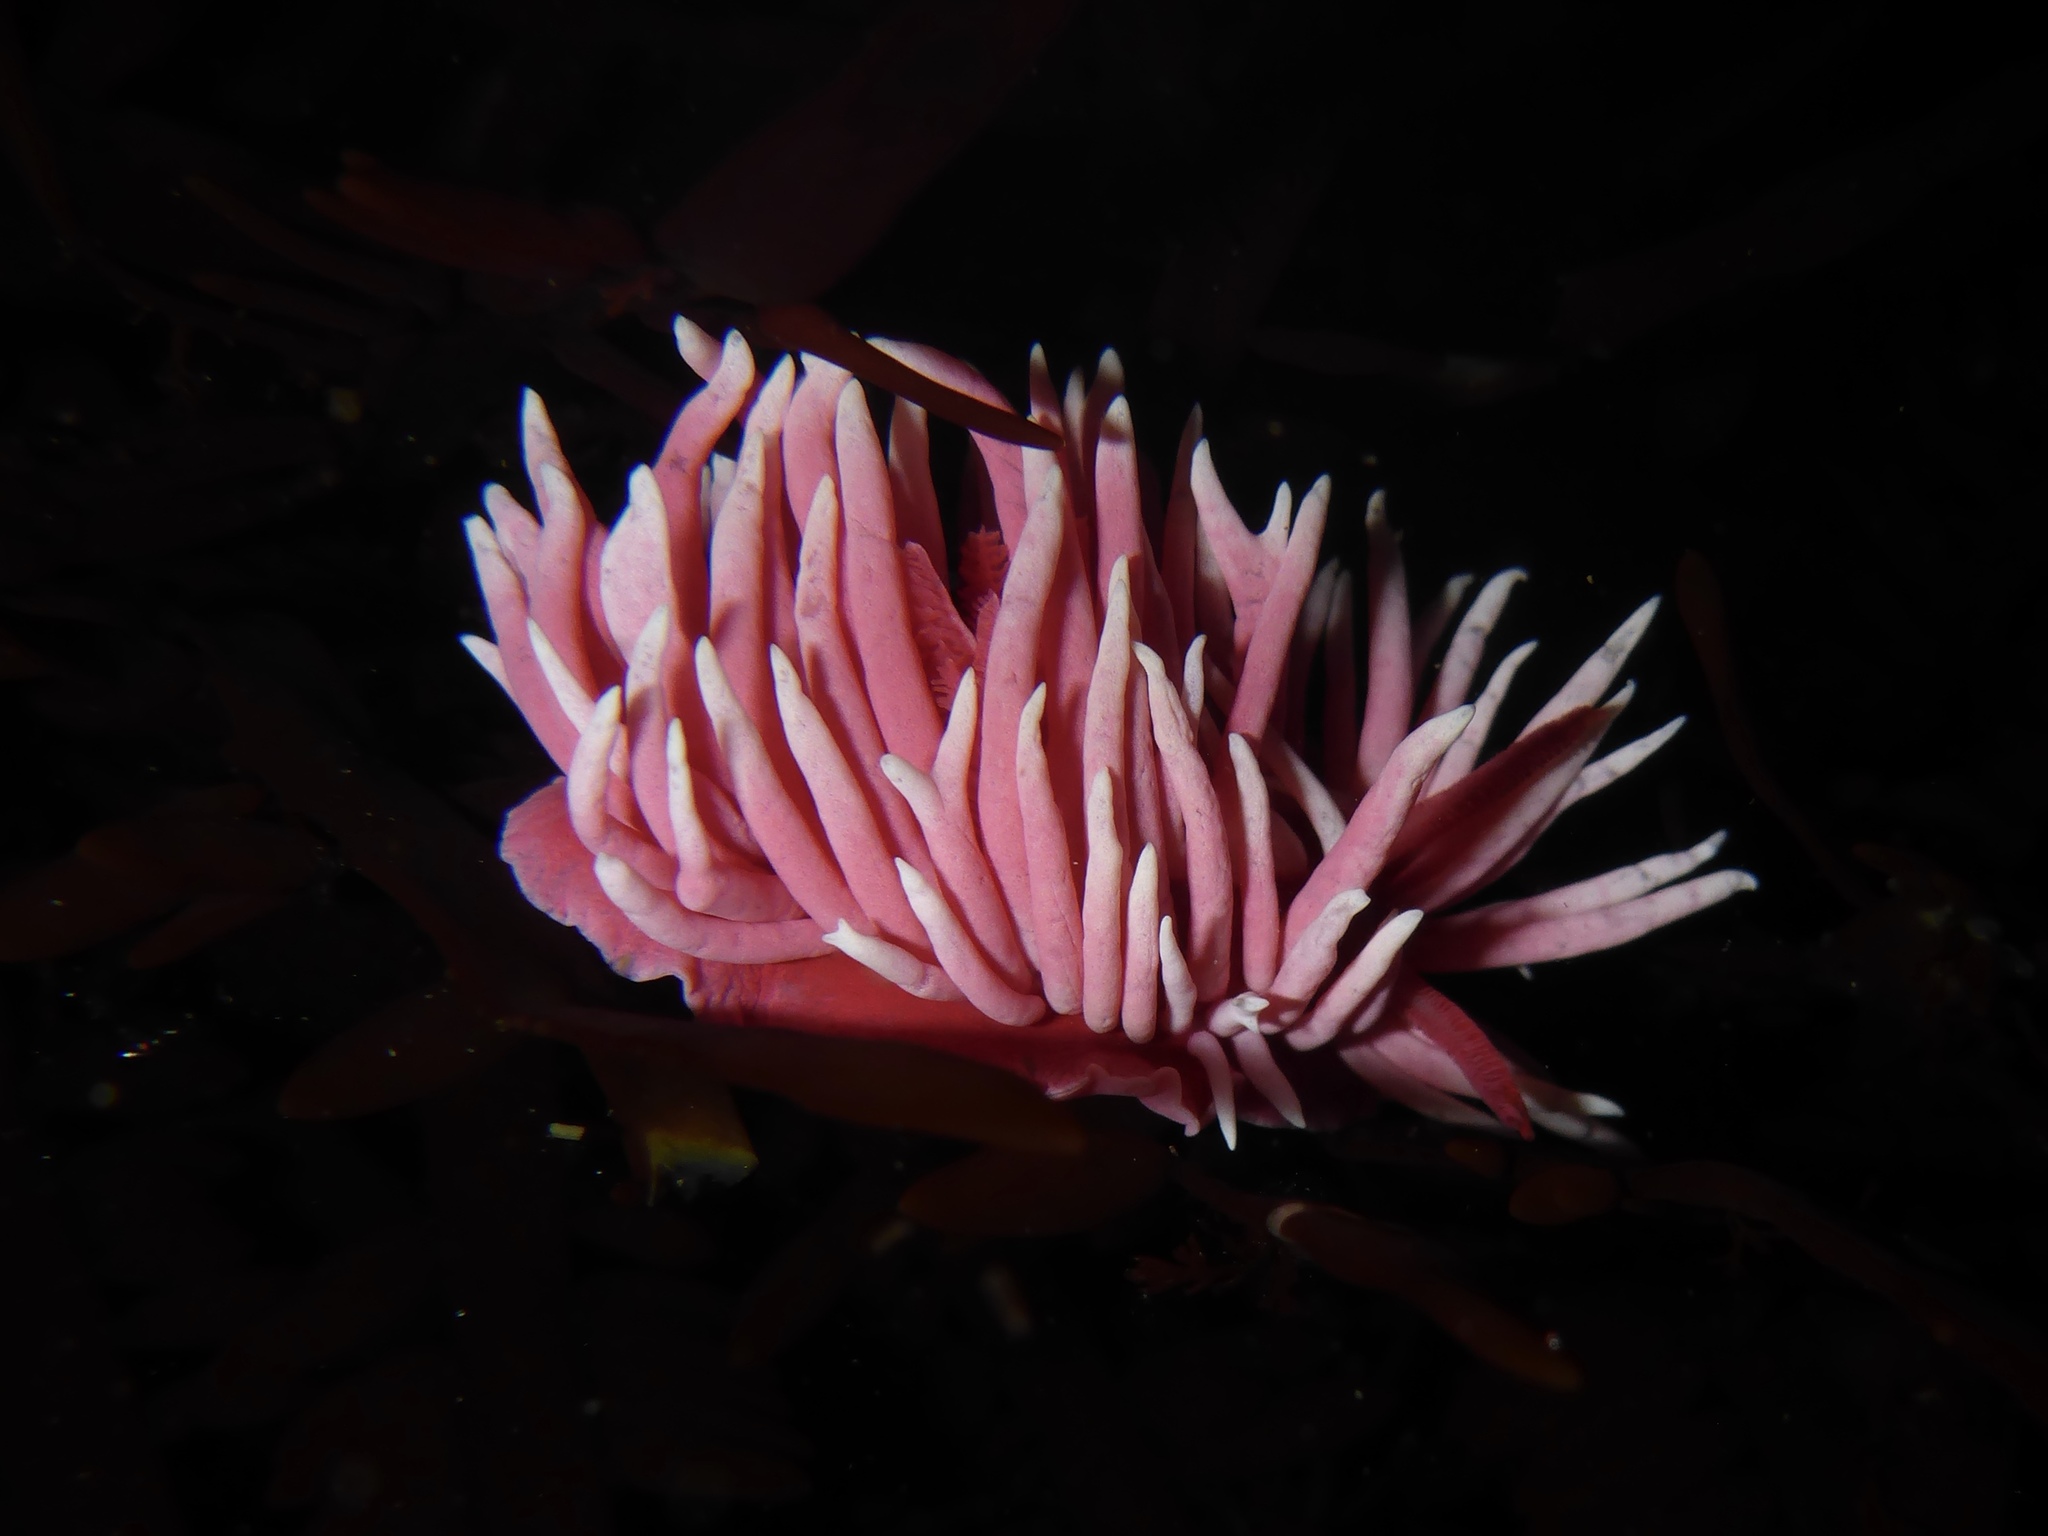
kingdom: Animalia
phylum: Mollusca
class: Gastropoda
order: Nudibranchia
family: Goniodorididae
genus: Okenia
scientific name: Okenia
